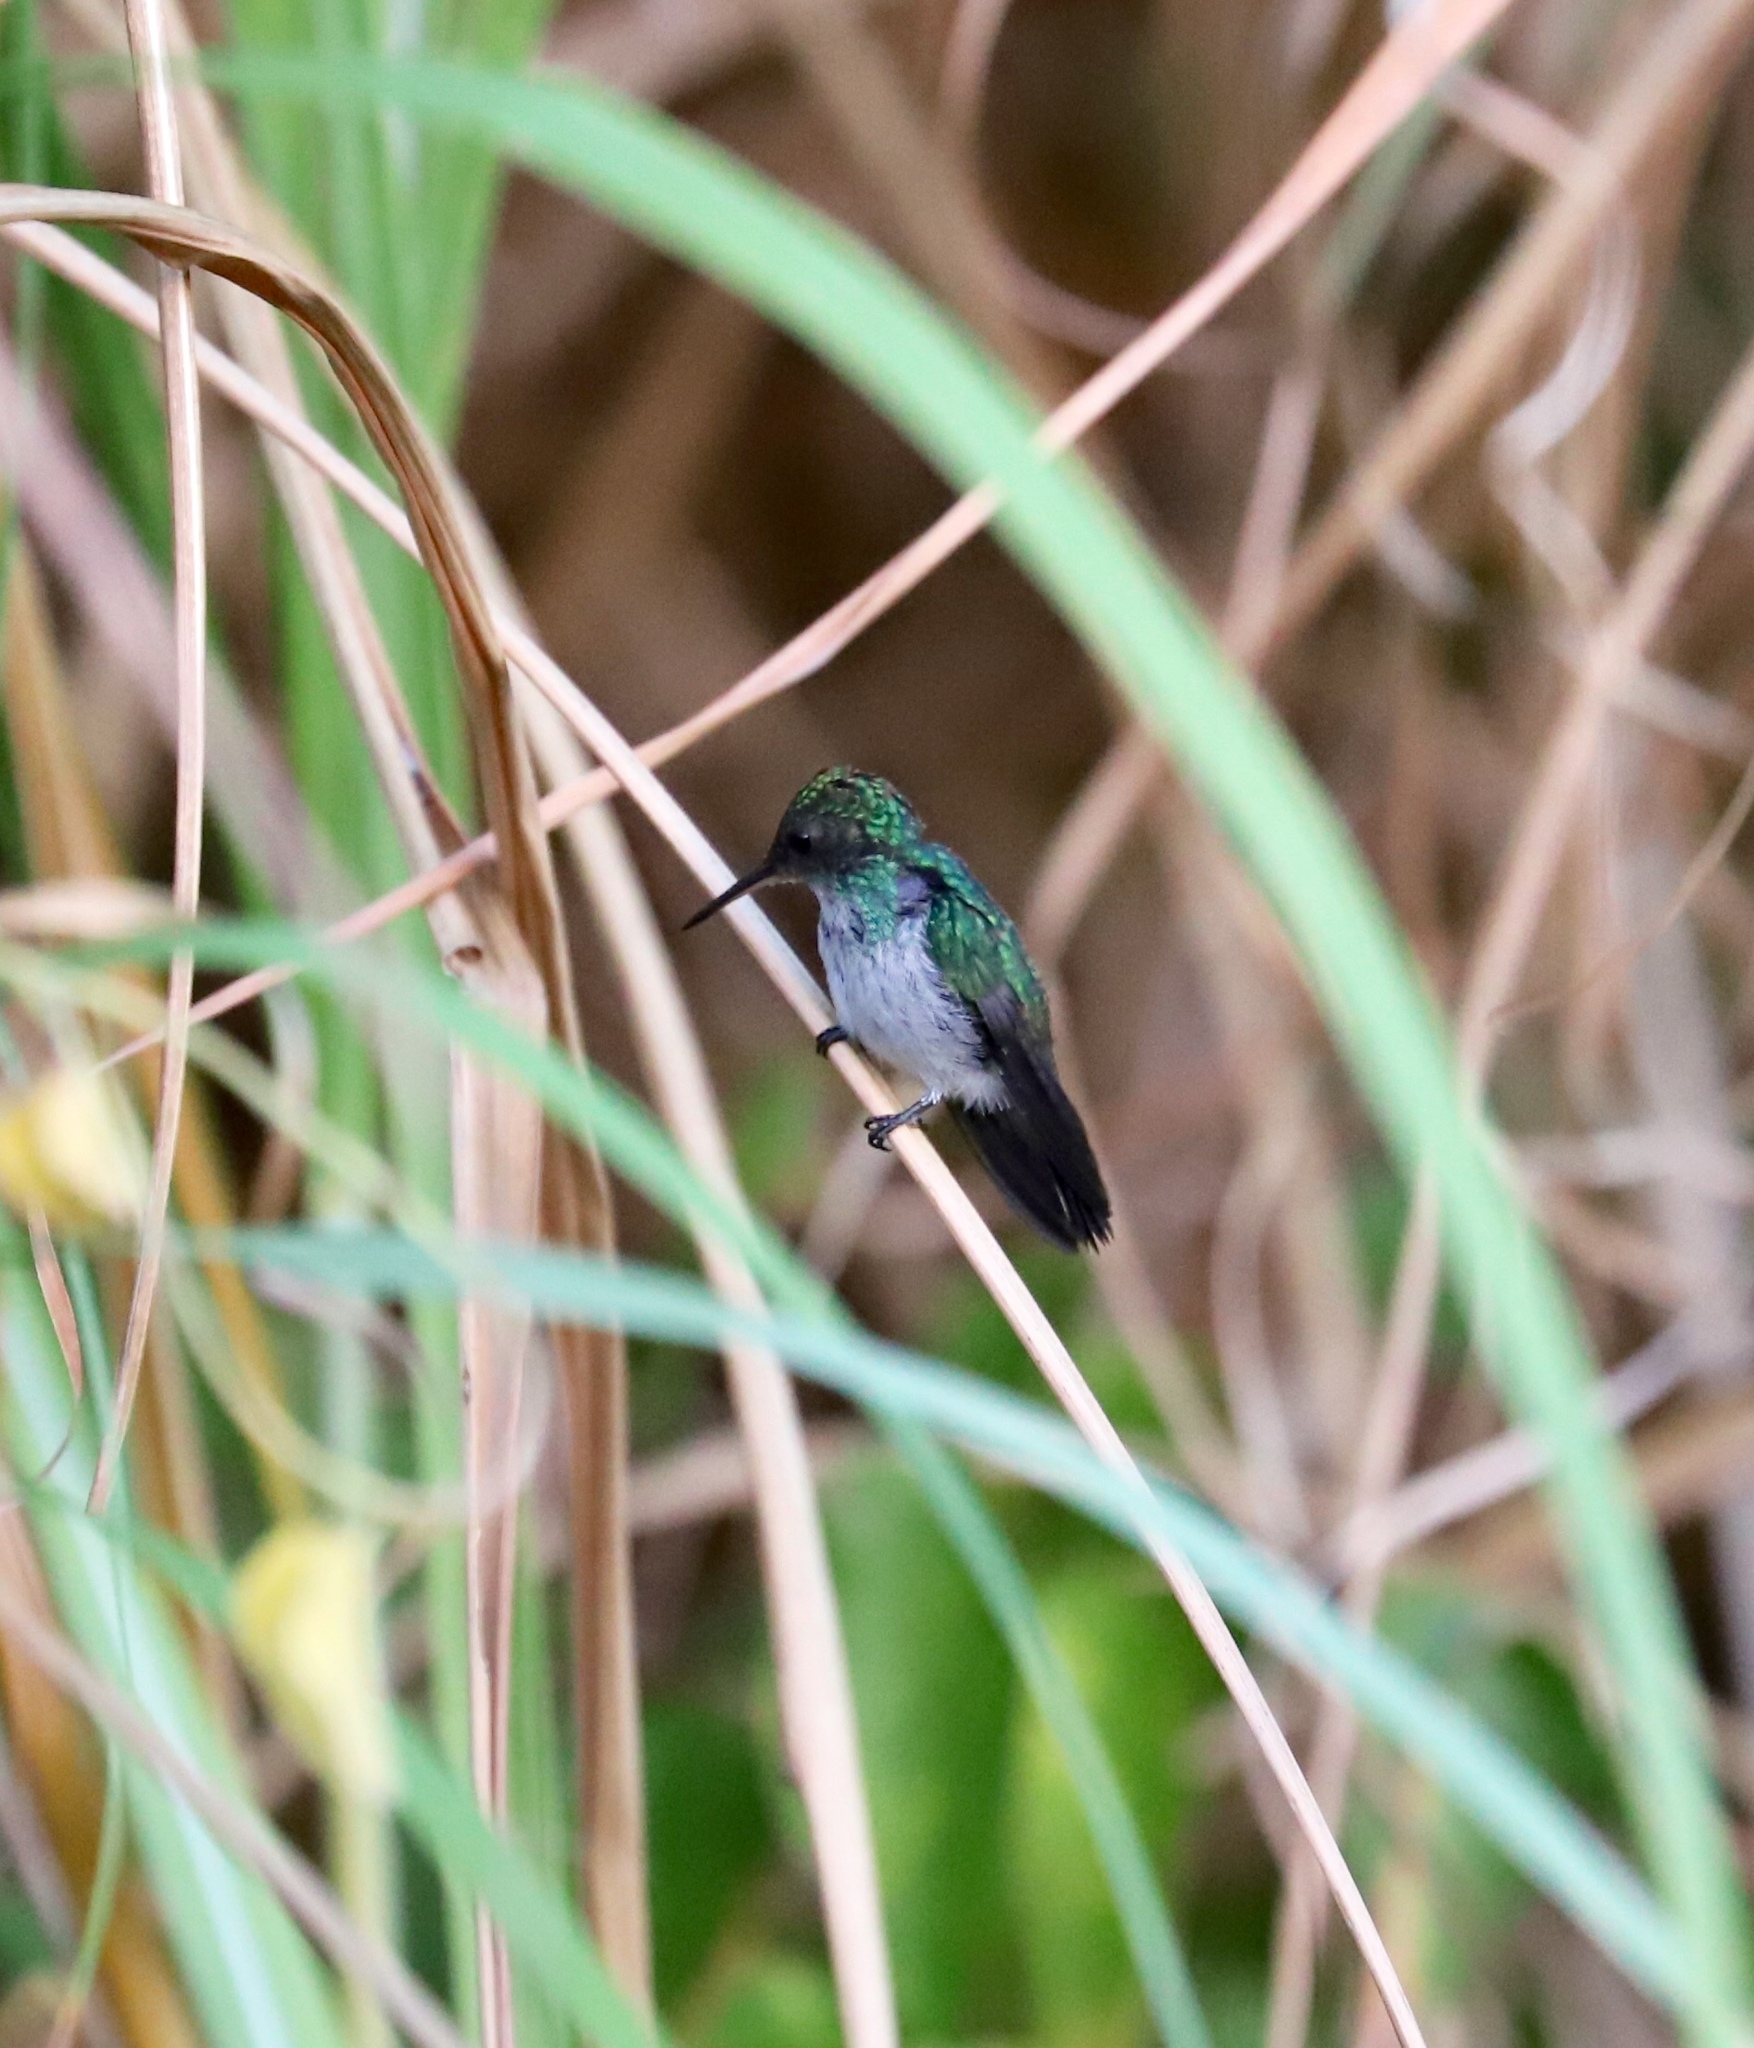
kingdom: Animalia
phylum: Chordata
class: Aves
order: Apodiformes
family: Trochilidae
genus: Polyerata
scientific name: Polyerata amabilis
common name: Blue-chested hummingbird
